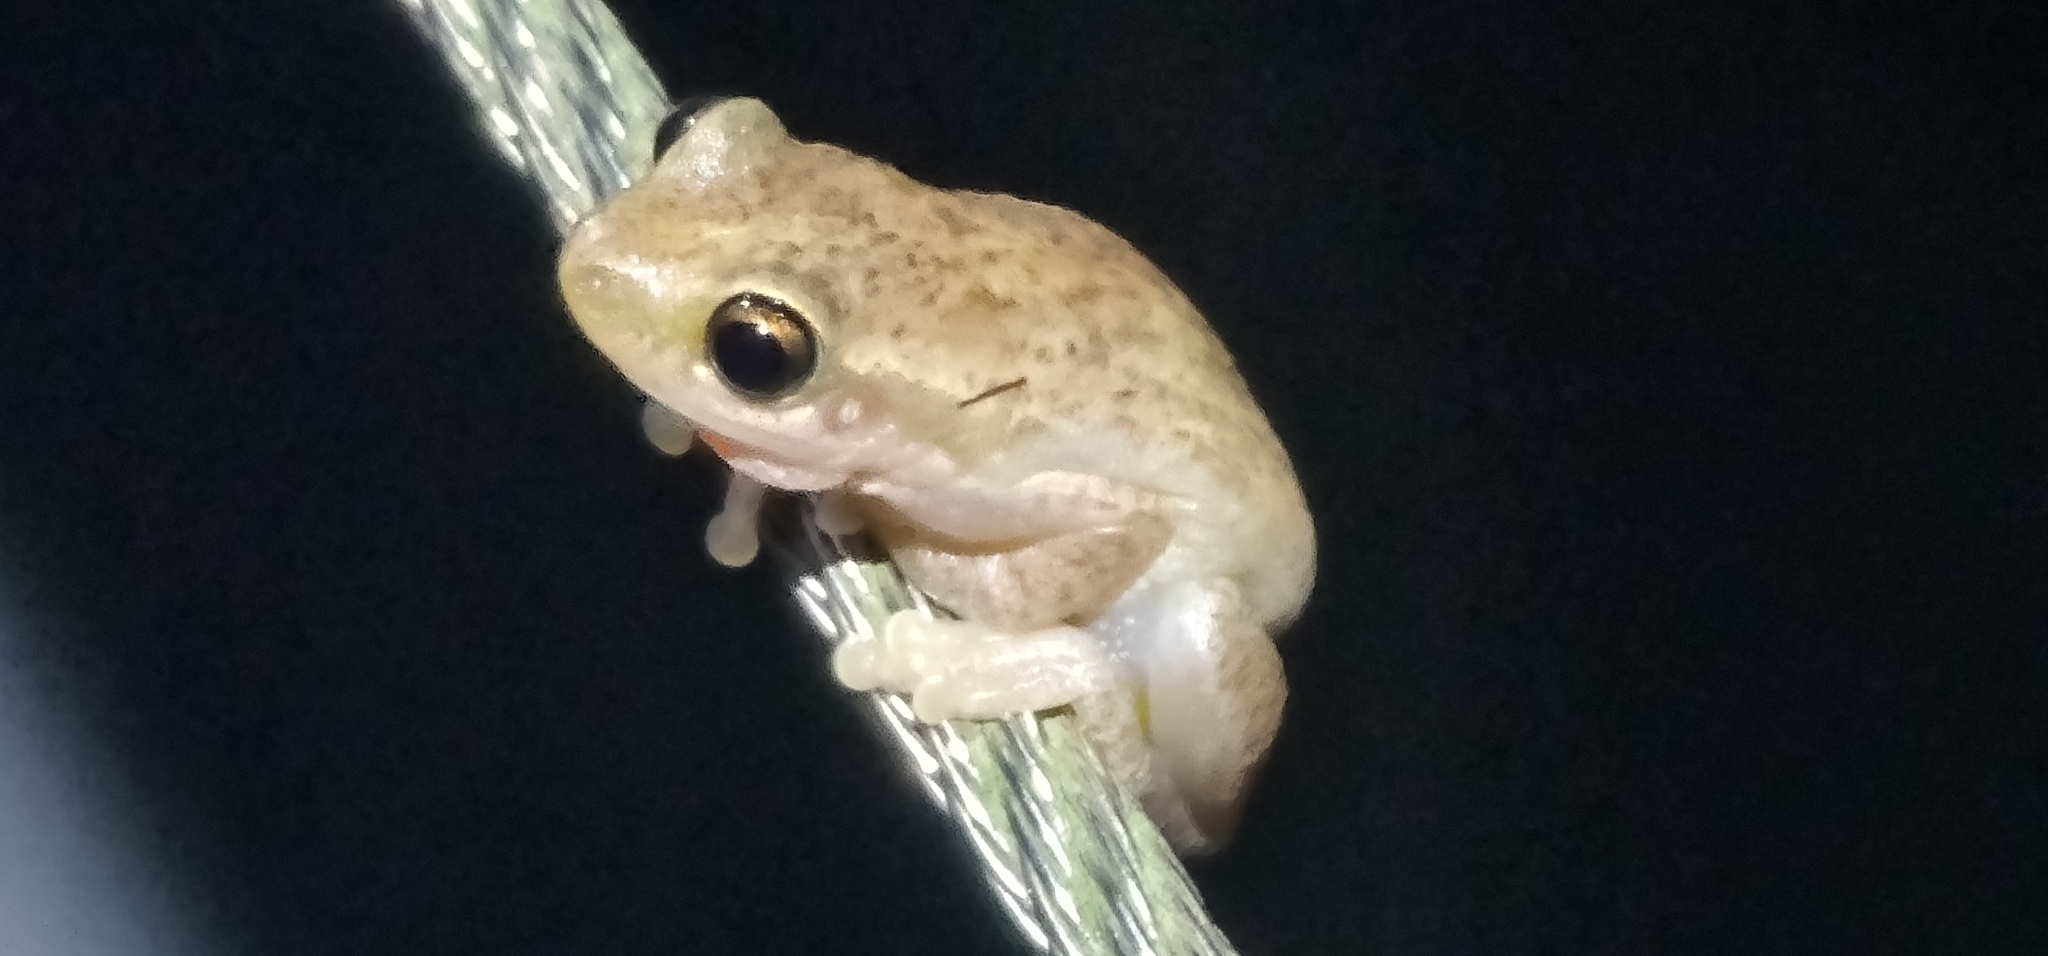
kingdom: Animalia
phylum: Chordata
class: Amphibia
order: Anura
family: Pelodryadidae
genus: Litoria
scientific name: Litoria
